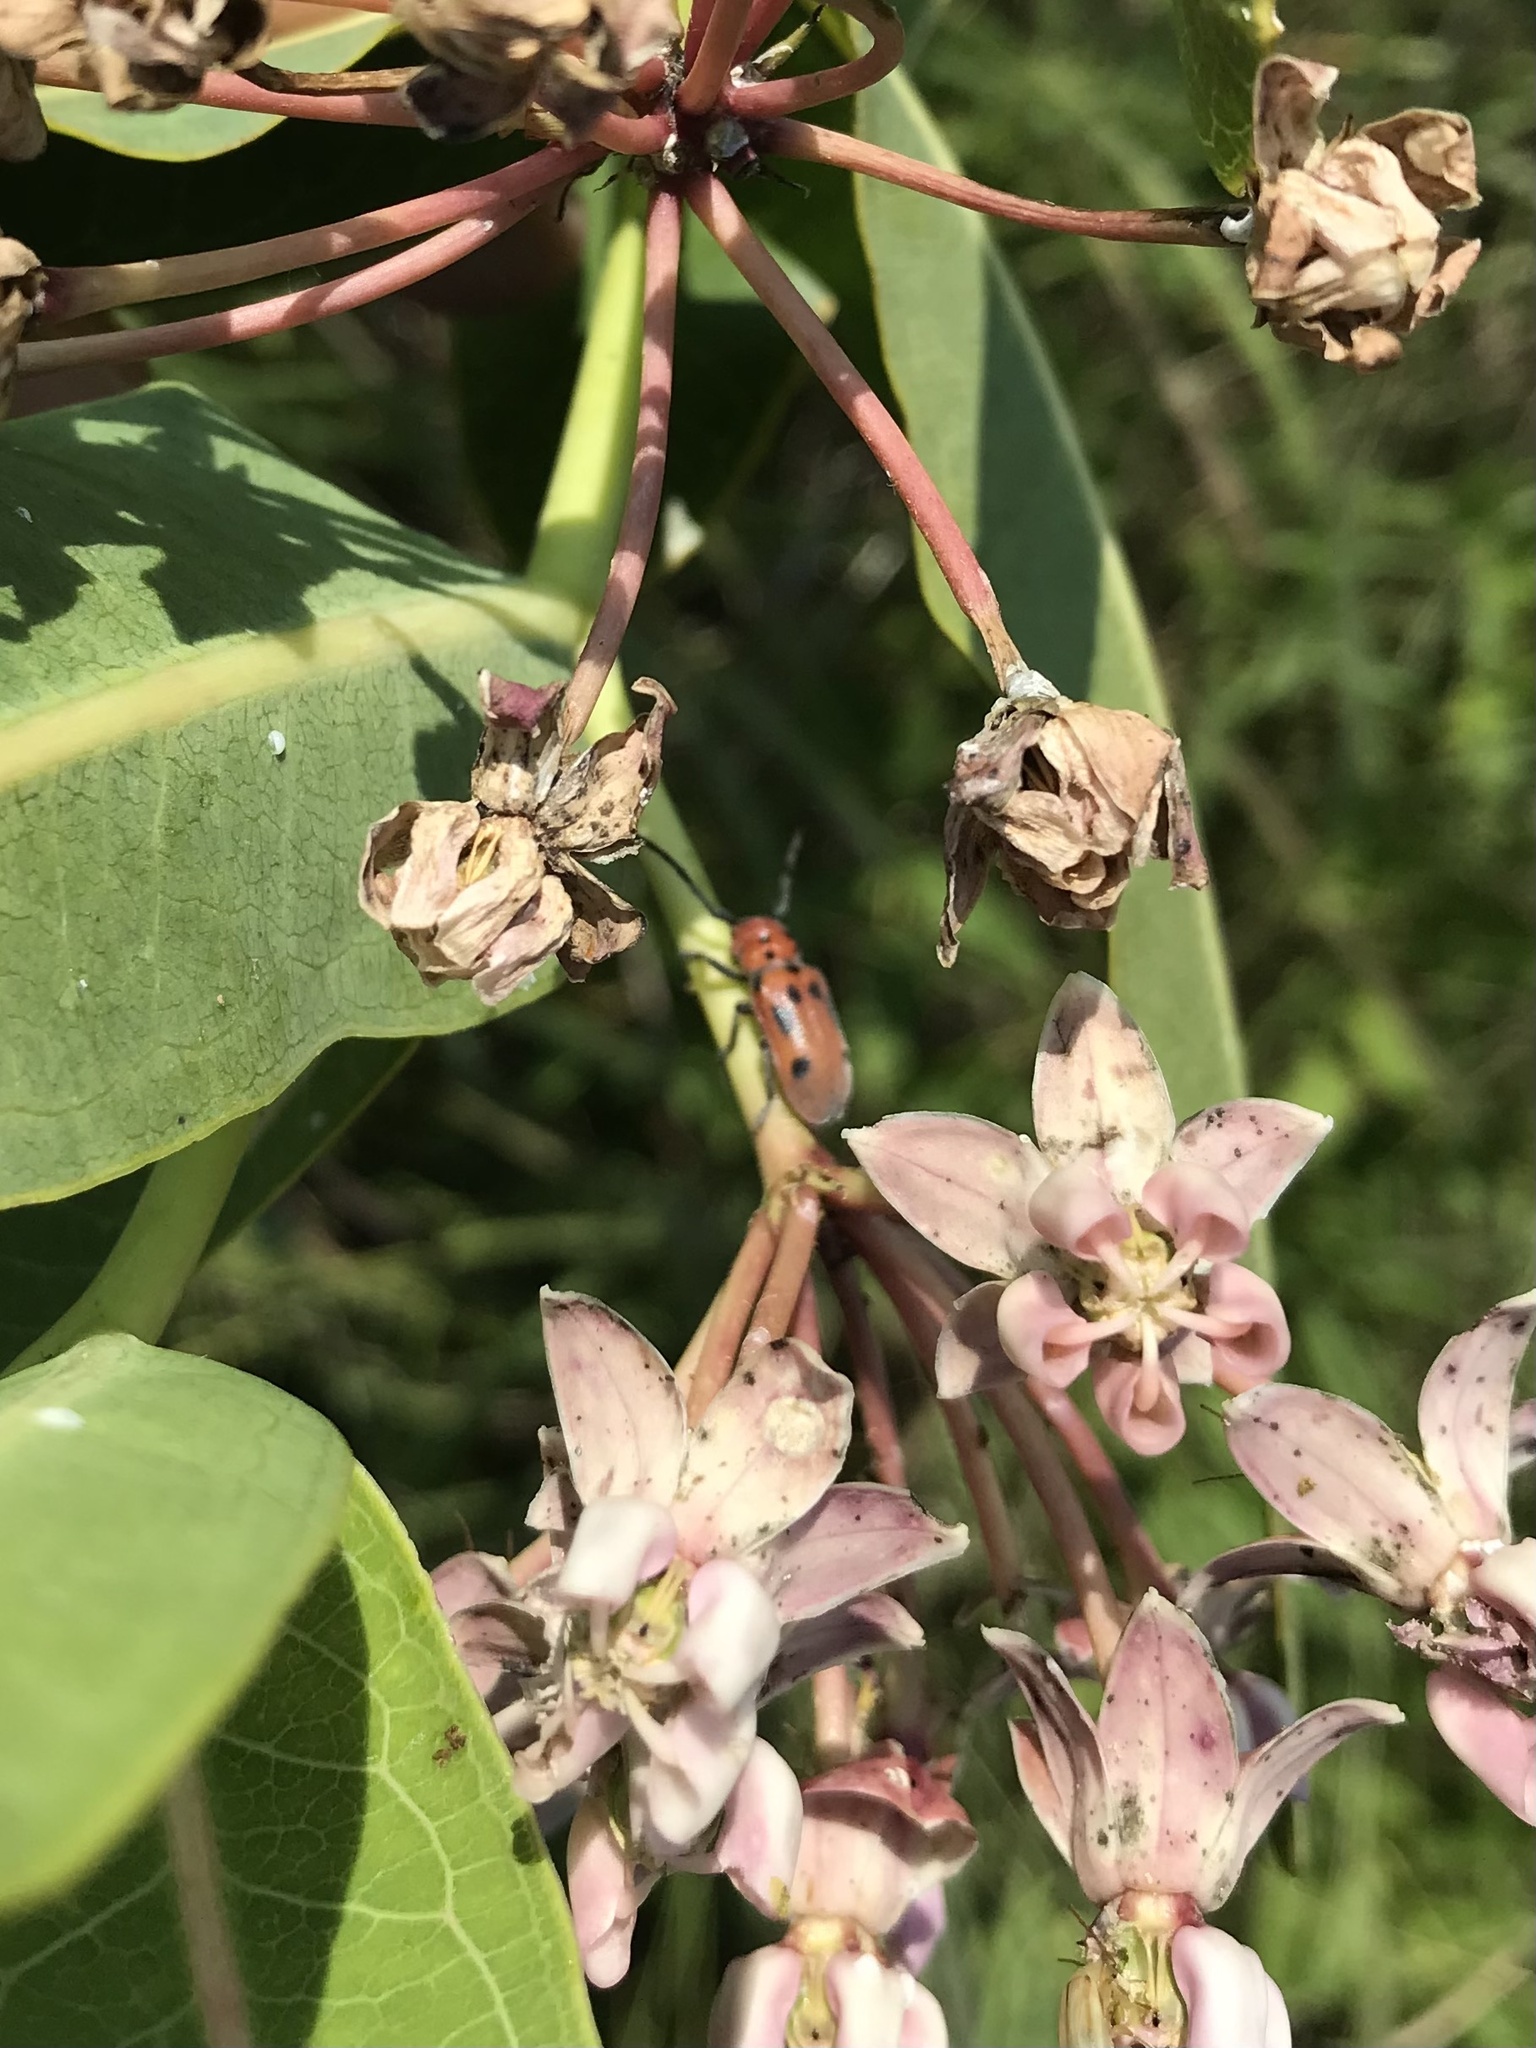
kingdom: Animalia
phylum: Arthropoda
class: Insecta
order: Coleoptera
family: Cerambycidae
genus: Tetraopes
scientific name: Tetraopes tetrophthalmus
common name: Red milkweed beetle
